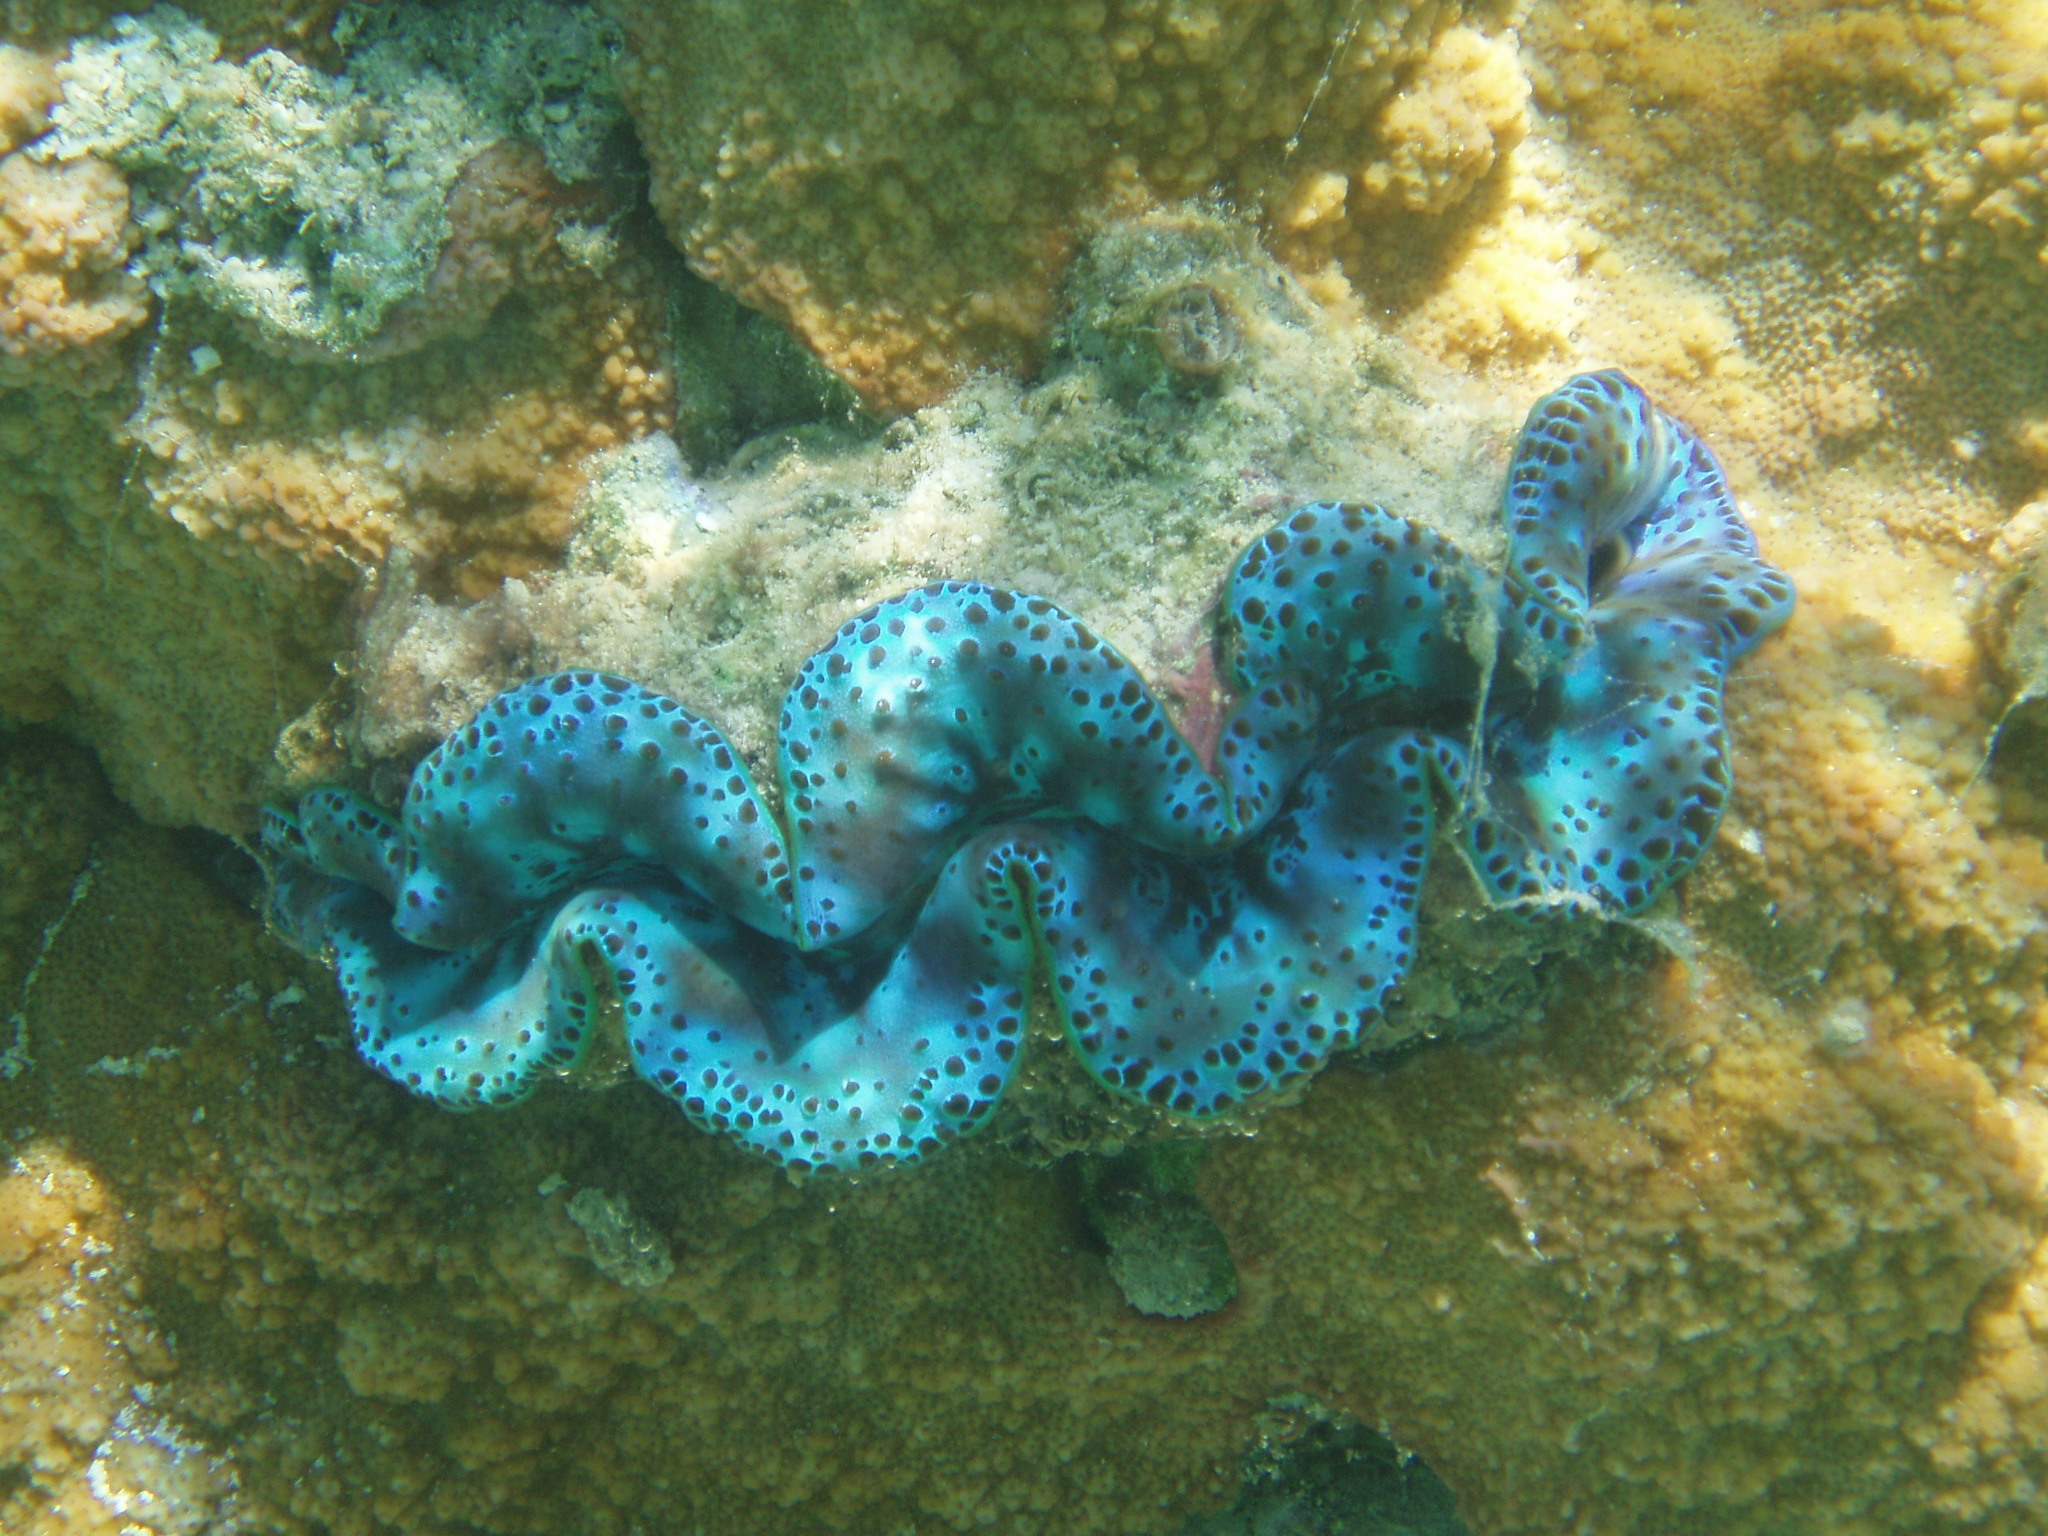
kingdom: Animalia
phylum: Mollusca
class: Bivalvia
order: Cardiida
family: Cardiidae
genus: Tridacna
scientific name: Tridacna maxima
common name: Small giant clam
